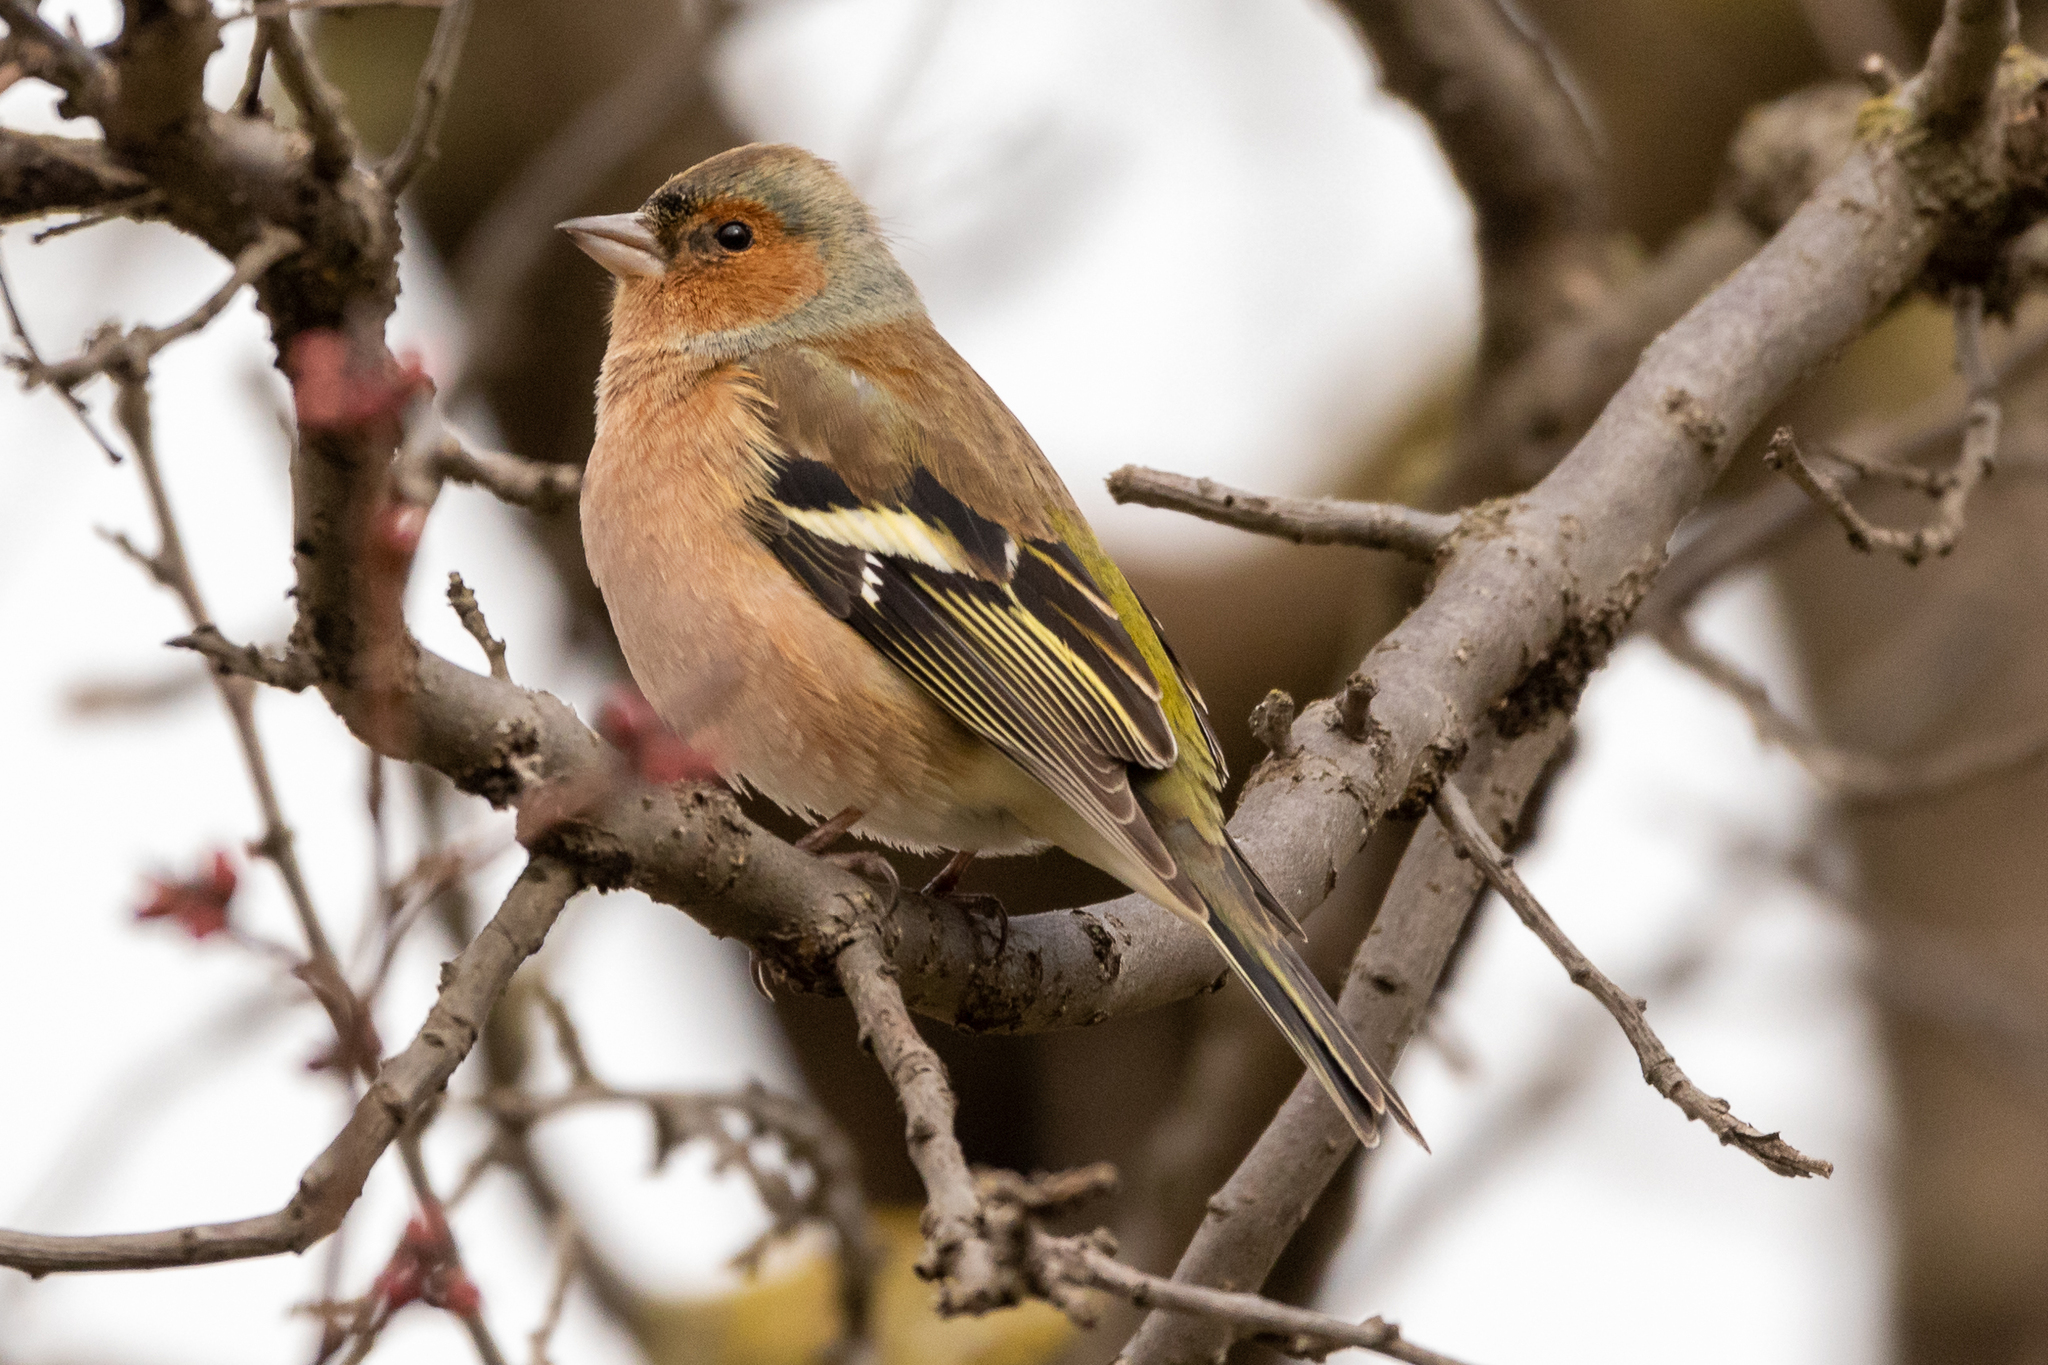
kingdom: Animalia
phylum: Chordata
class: Aves
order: Passeriformes
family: Fringillidae
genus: Fringilla
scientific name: Fringilla coelebs
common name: Common chaffinch
